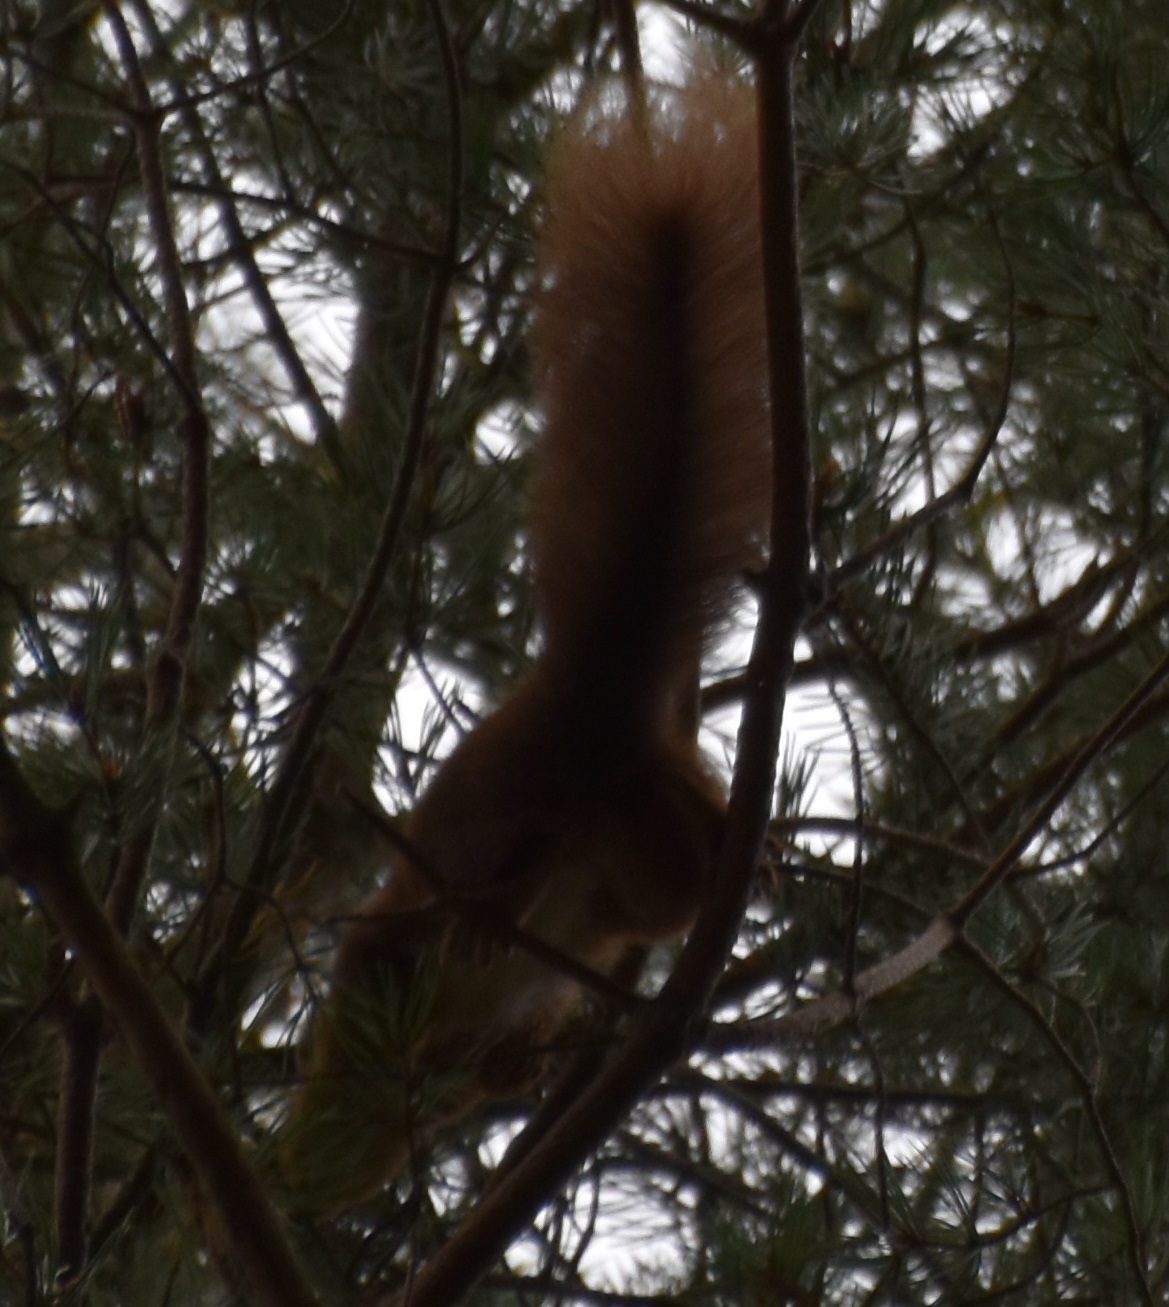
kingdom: Animalia
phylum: Chordata
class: Mammalia
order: Rodentia
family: Sciuridae
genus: Sciurus
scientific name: Sciurus vulgaris
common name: Eurasian red squirrel
